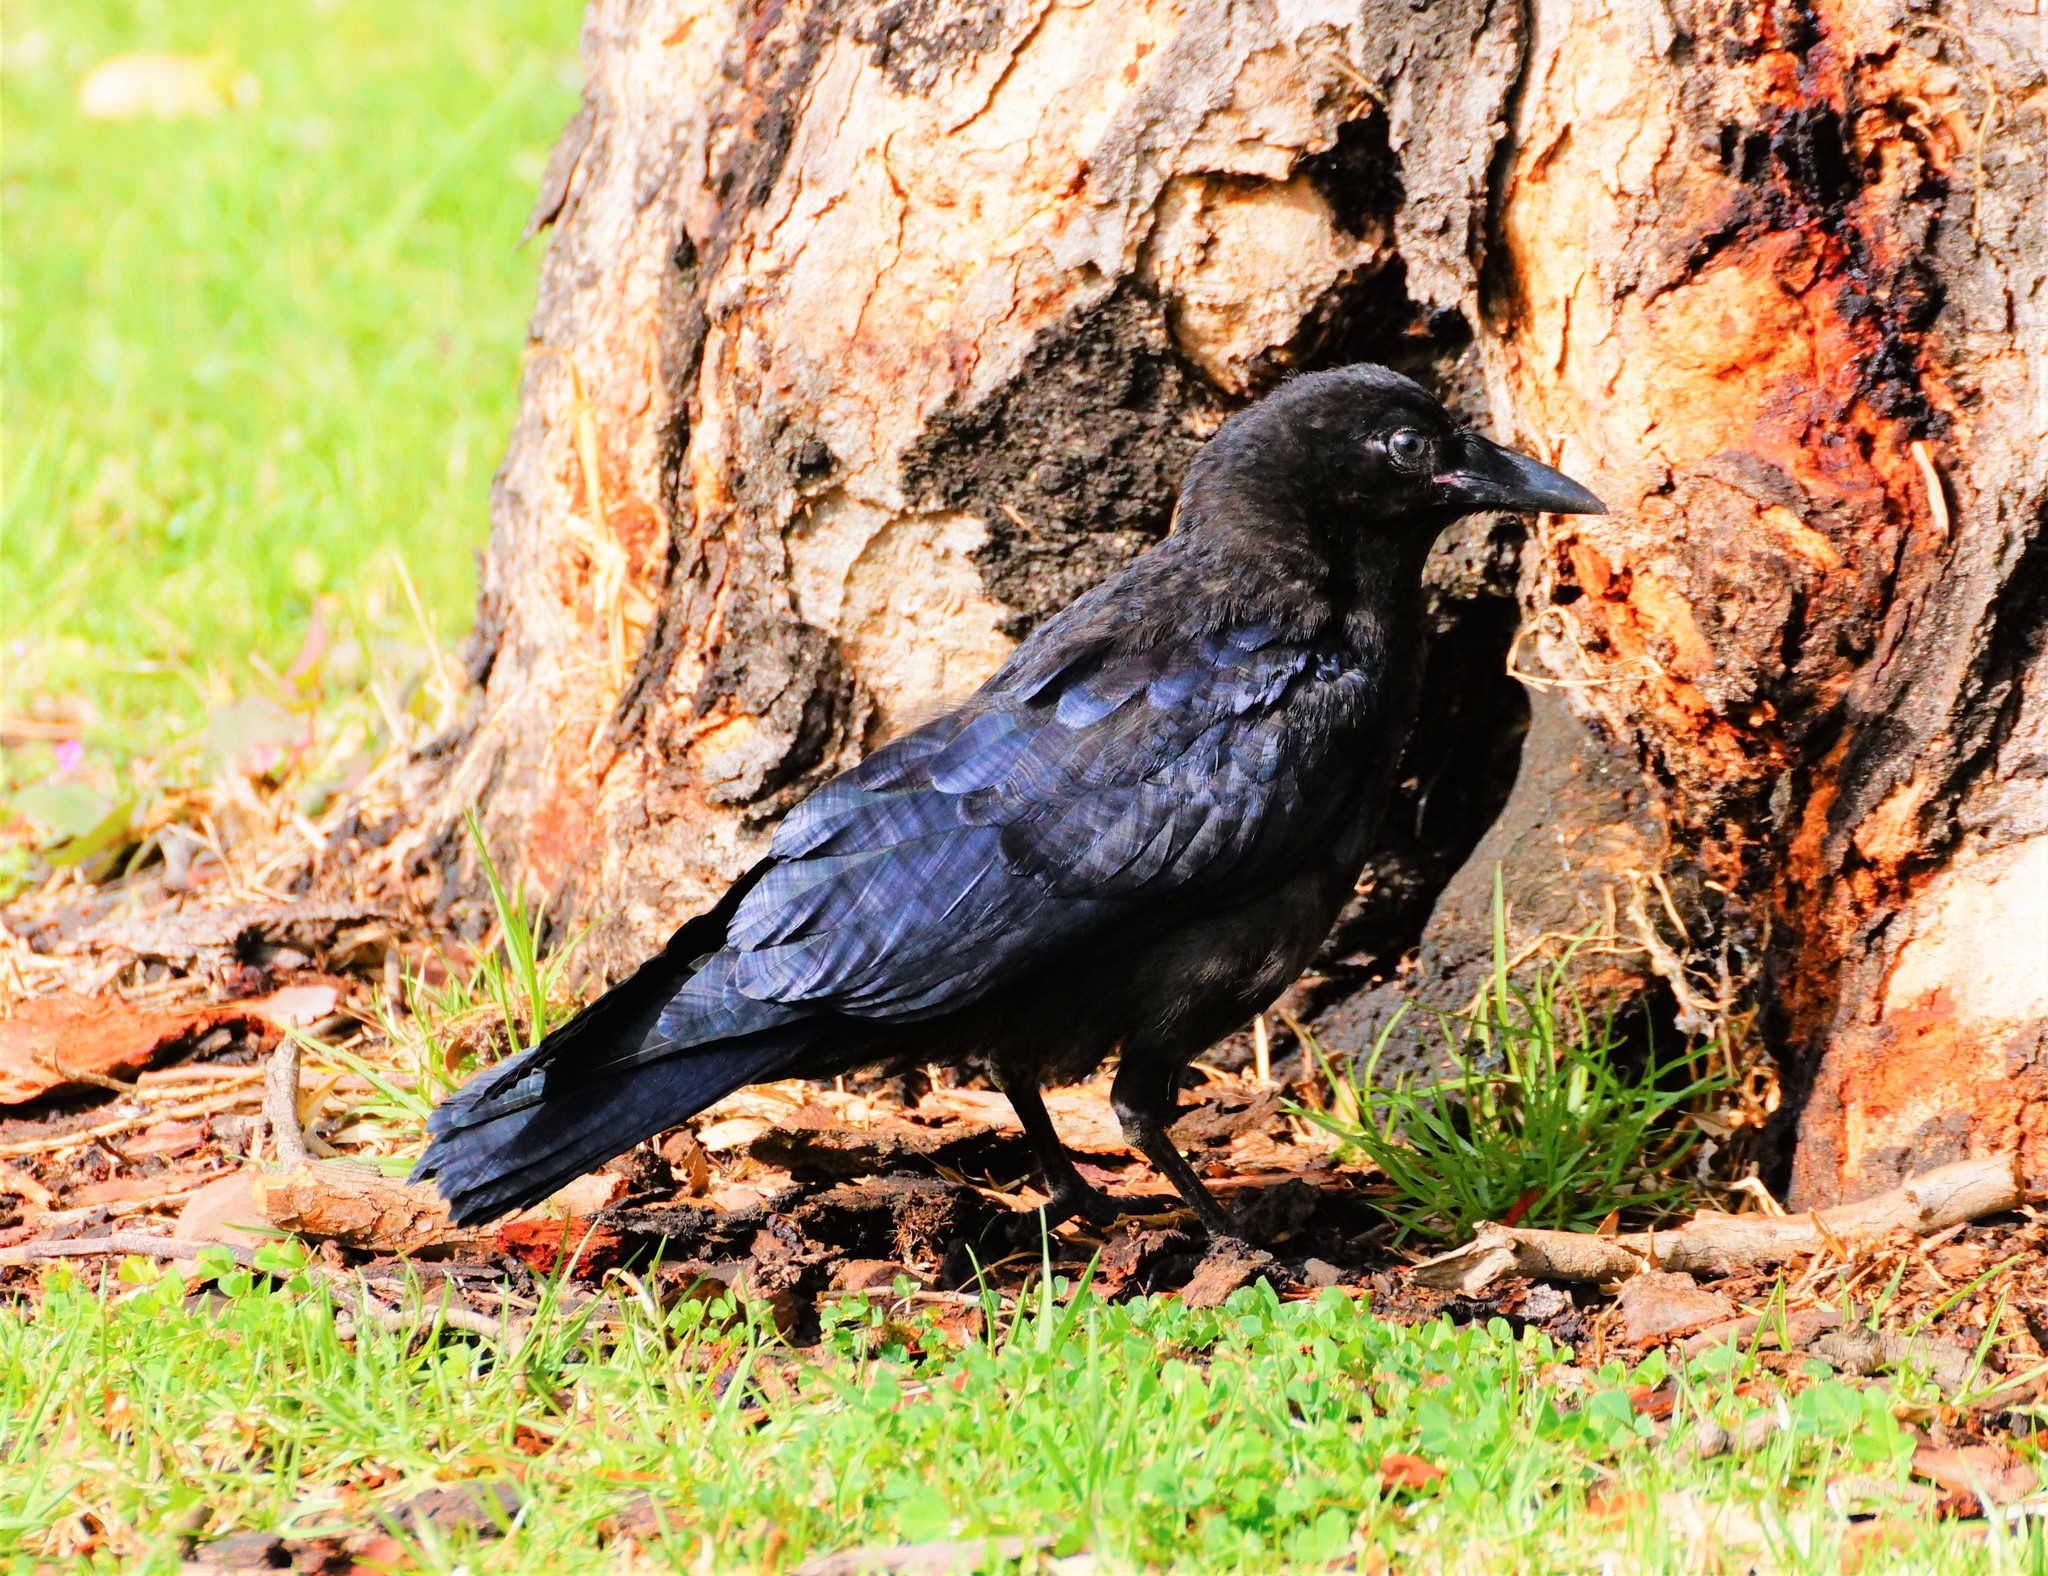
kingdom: Animalia
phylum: Chordata
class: Aves
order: Passeriformes
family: Corvidae
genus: Corvus
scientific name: Corvus mellori
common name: Little raven
